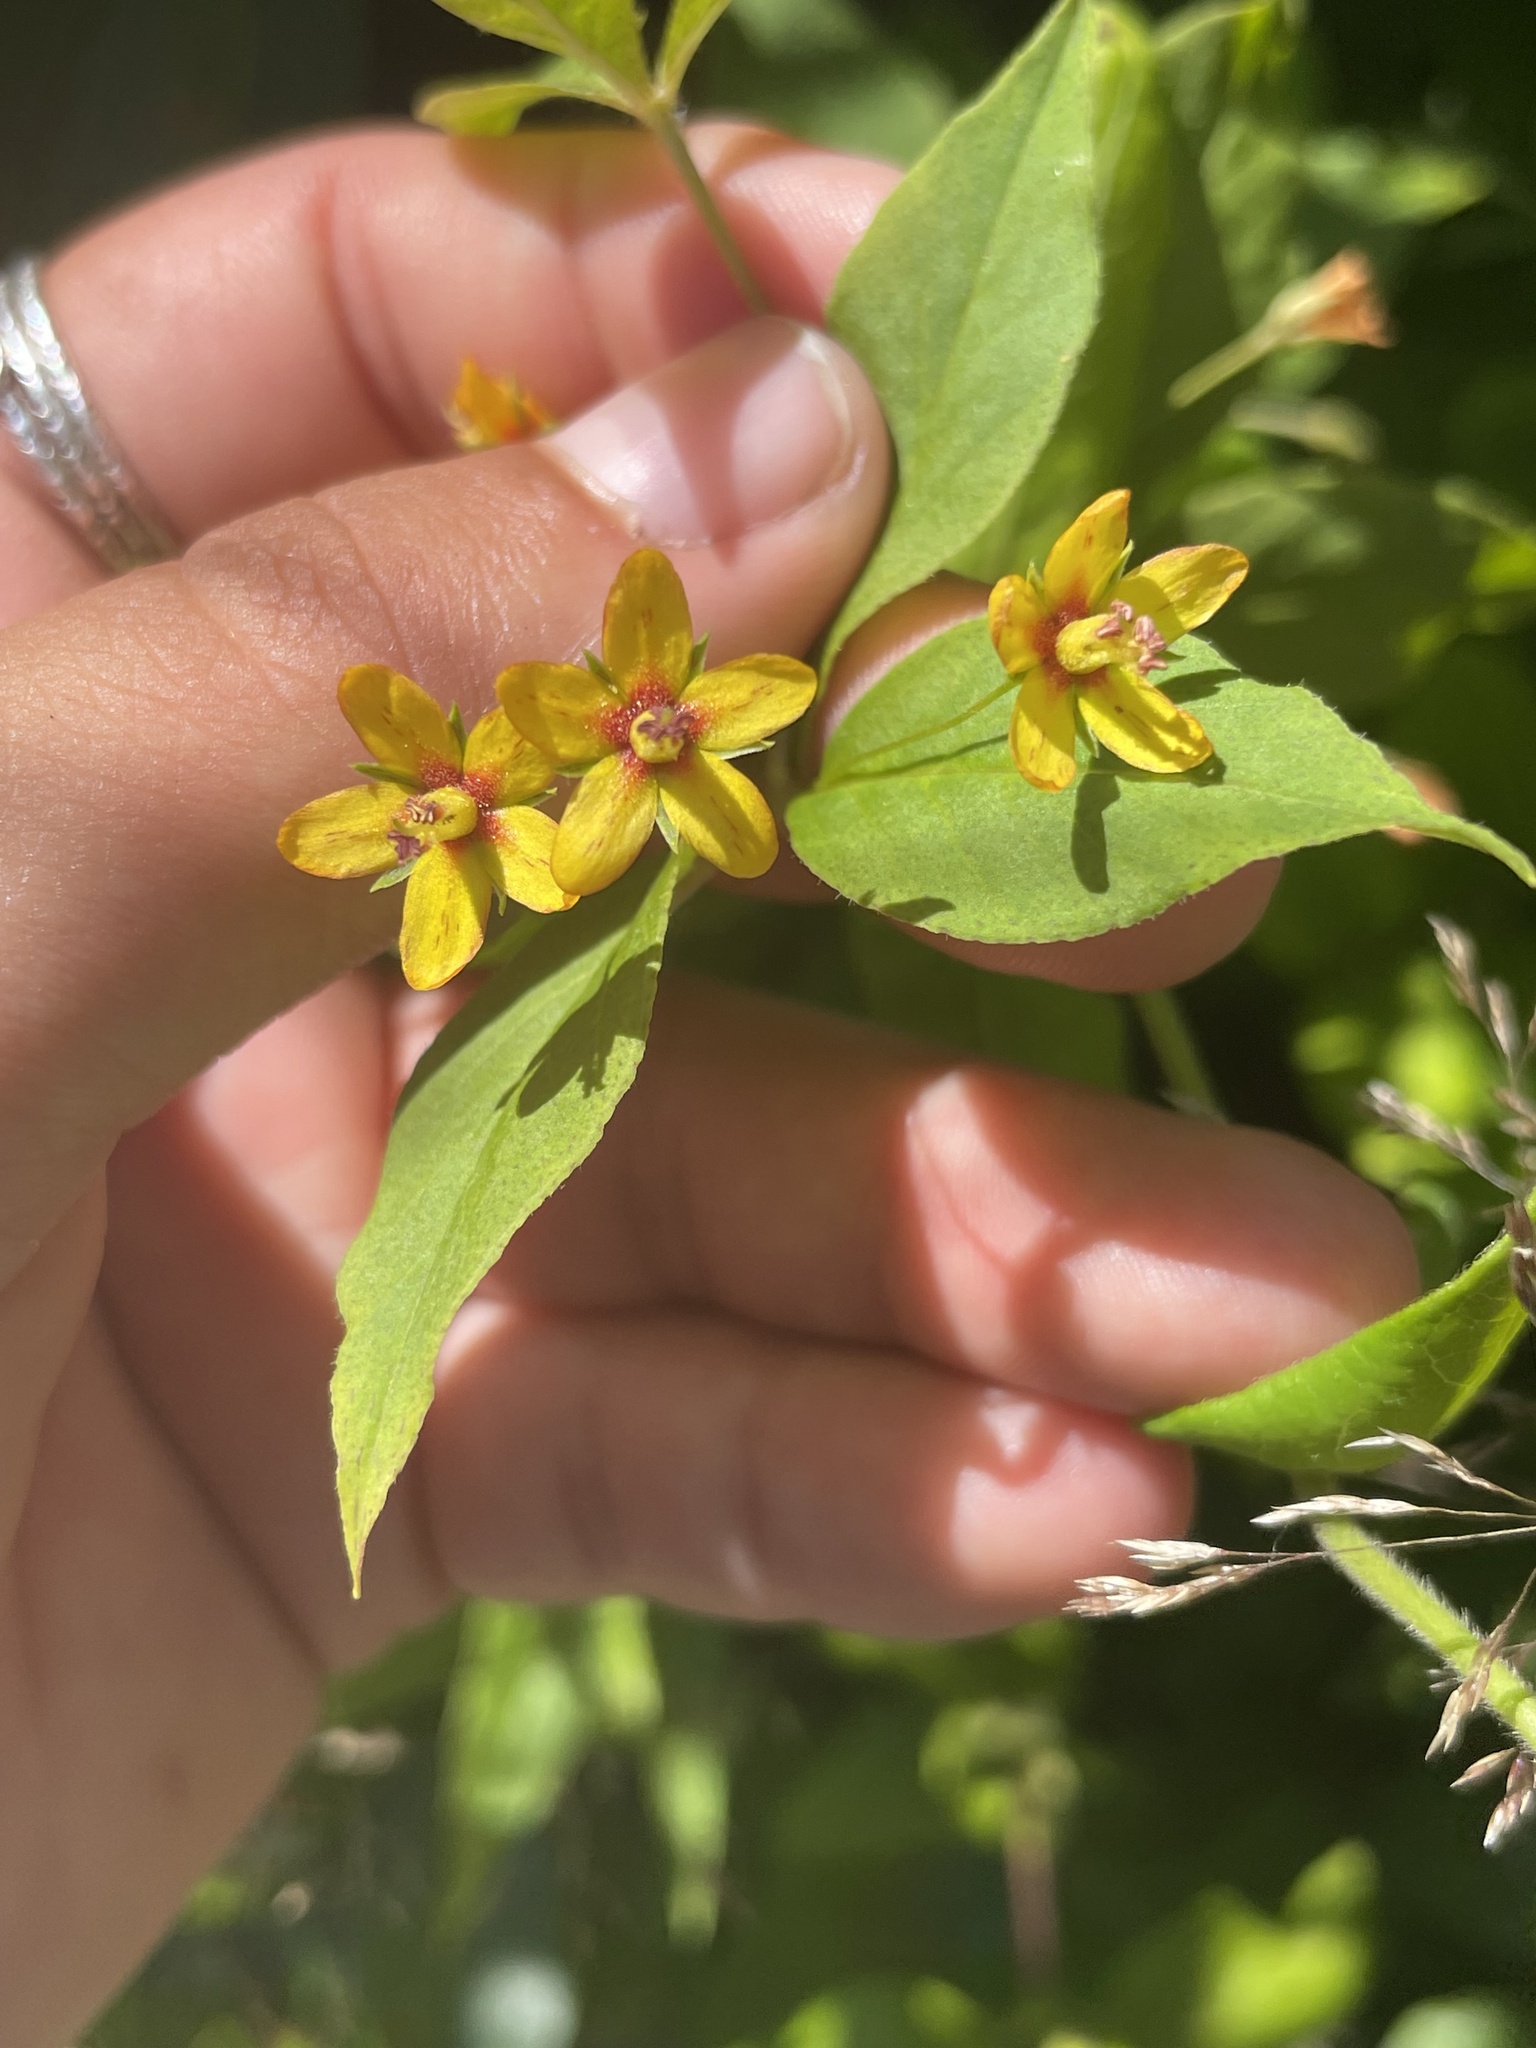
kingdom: Plantae
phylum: Tracheophyta
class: Magnoliopsida
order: Ericales
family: Primulaceae
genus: Lysimachia
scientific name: Lysimachia quadrifolia
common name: Whorled loosestrife
